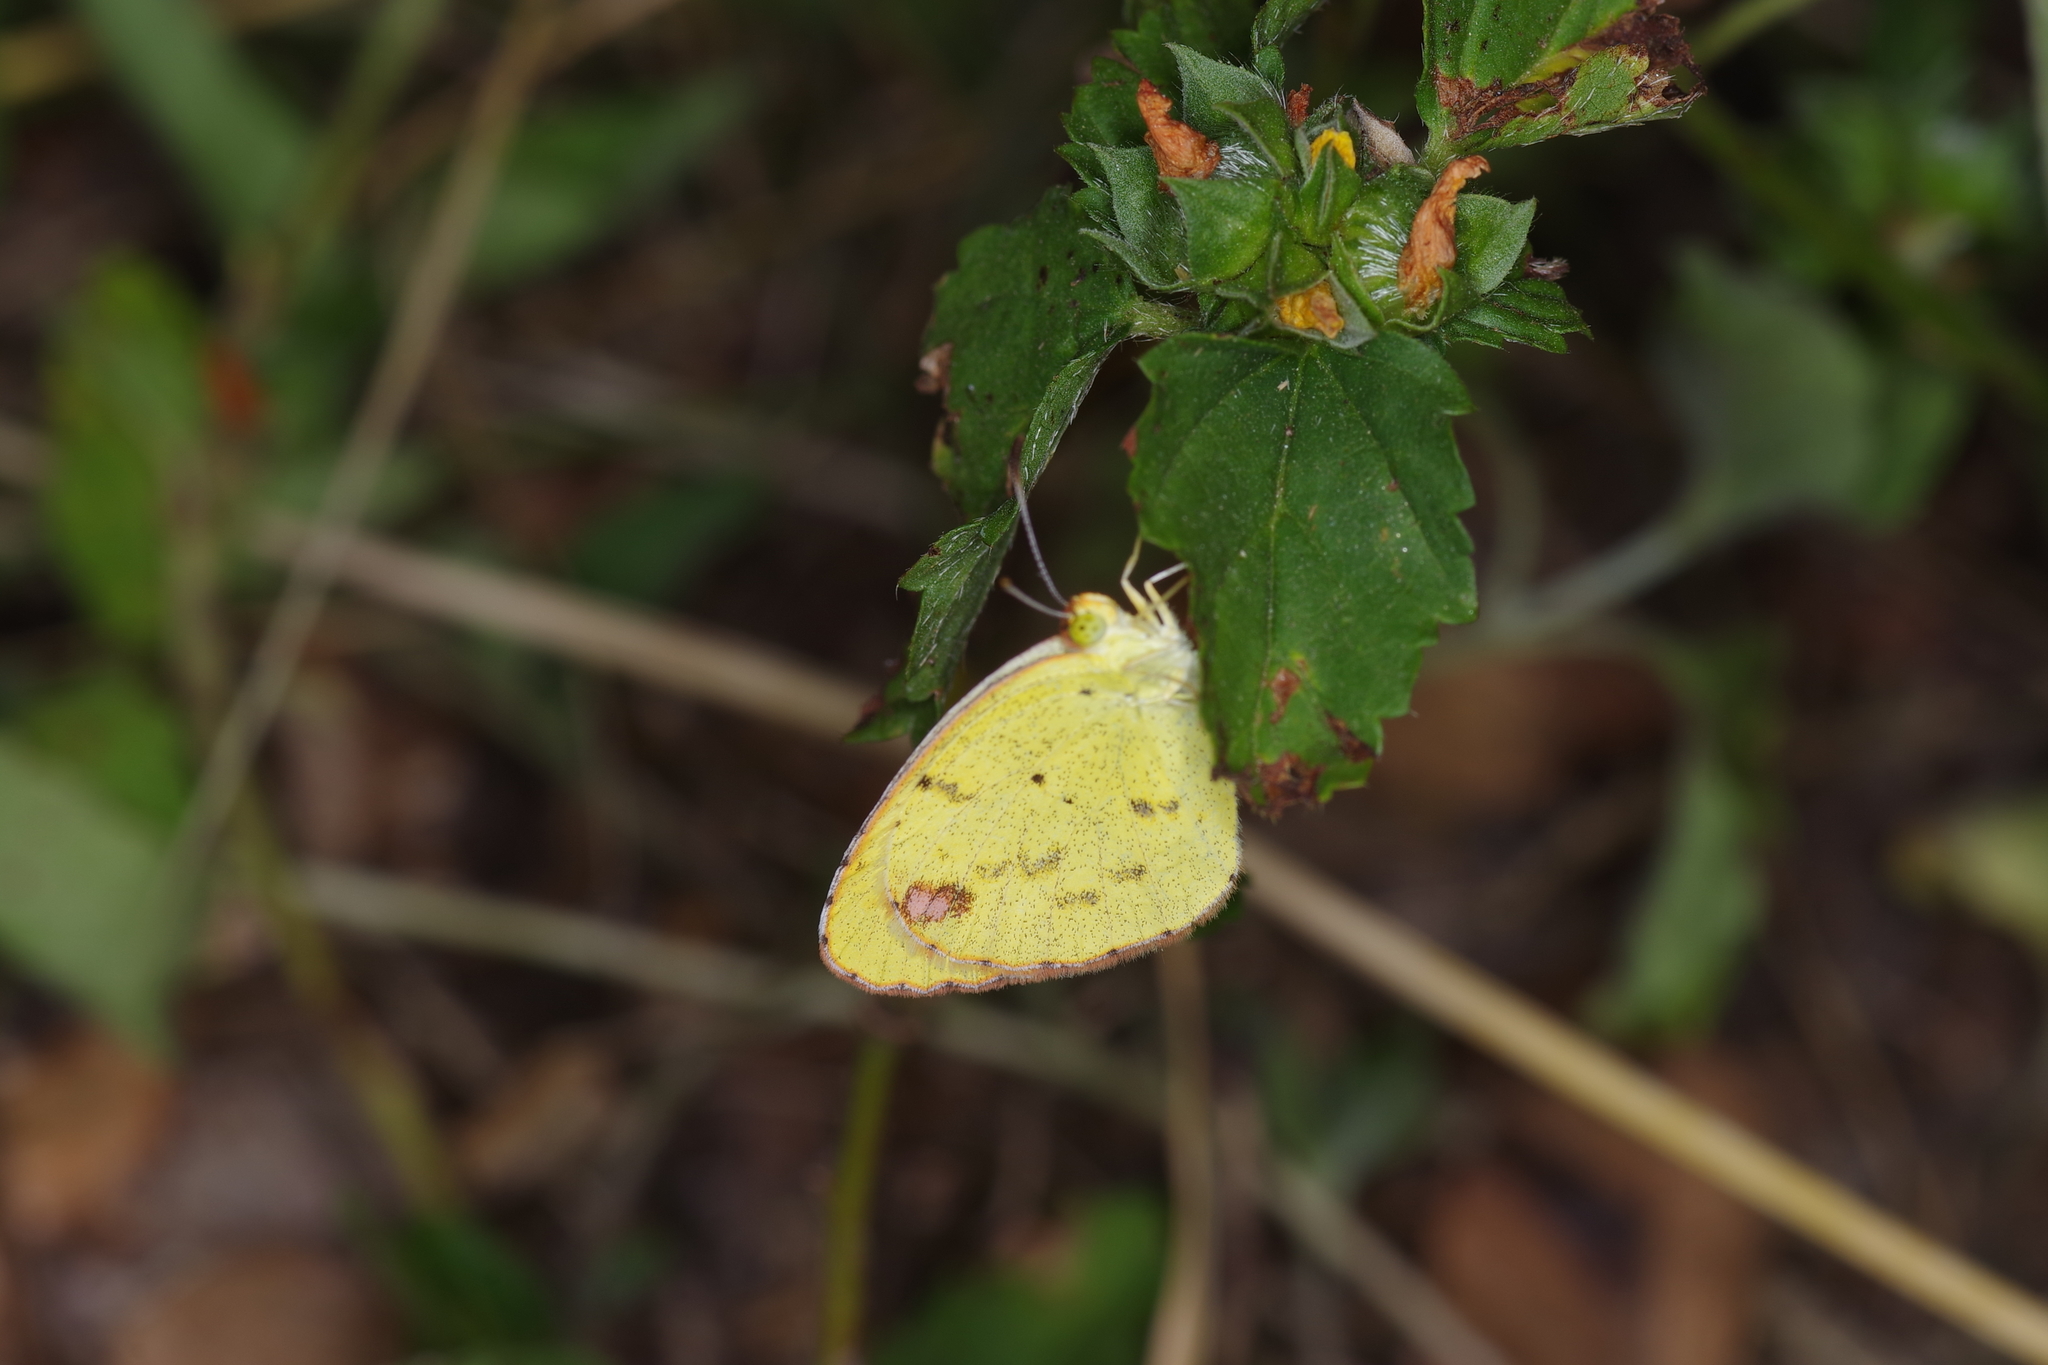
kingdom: Animalia
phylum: Arthropoda
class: Insecta
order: Lepidoptera
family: Pieridae
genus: Pyrisitia
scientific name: Pyrisitia lisa
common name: Little yellow
